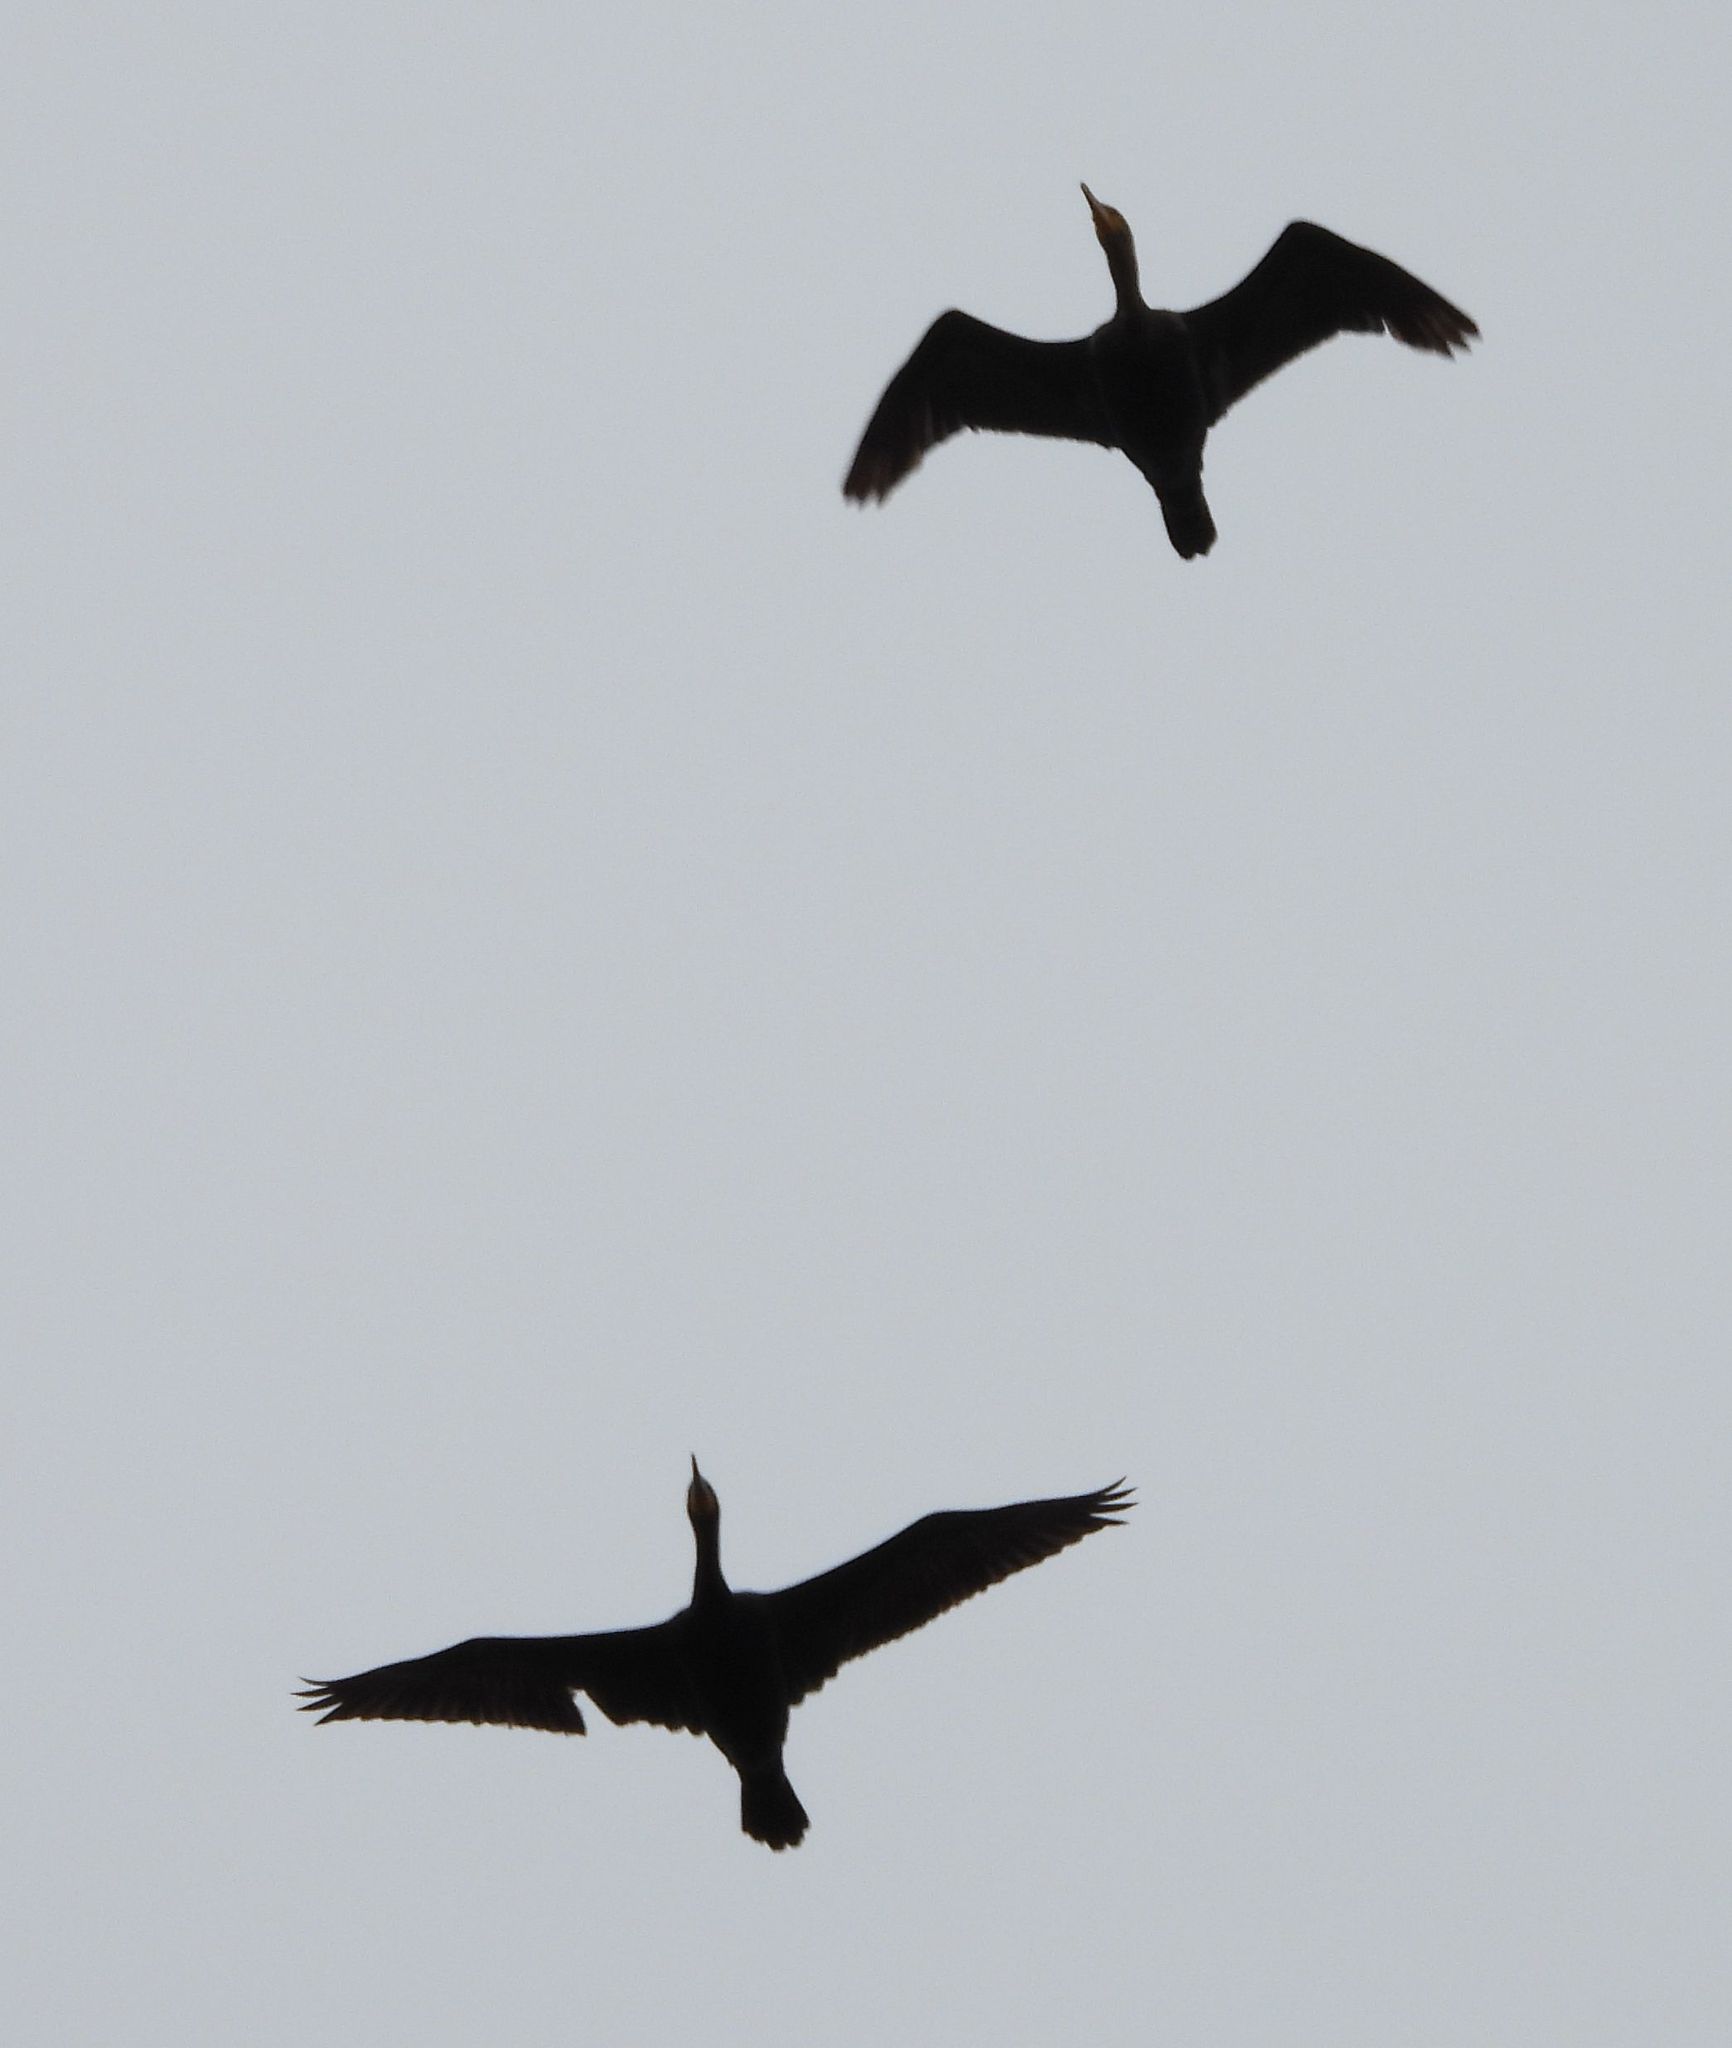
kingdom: Animalia
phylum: Chordata
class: Aves
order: Suliformes
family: Phalacrocoracidae
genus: Phalacrocorax
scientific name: Phalacrocorax auritus
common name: Double-crested cormorant
